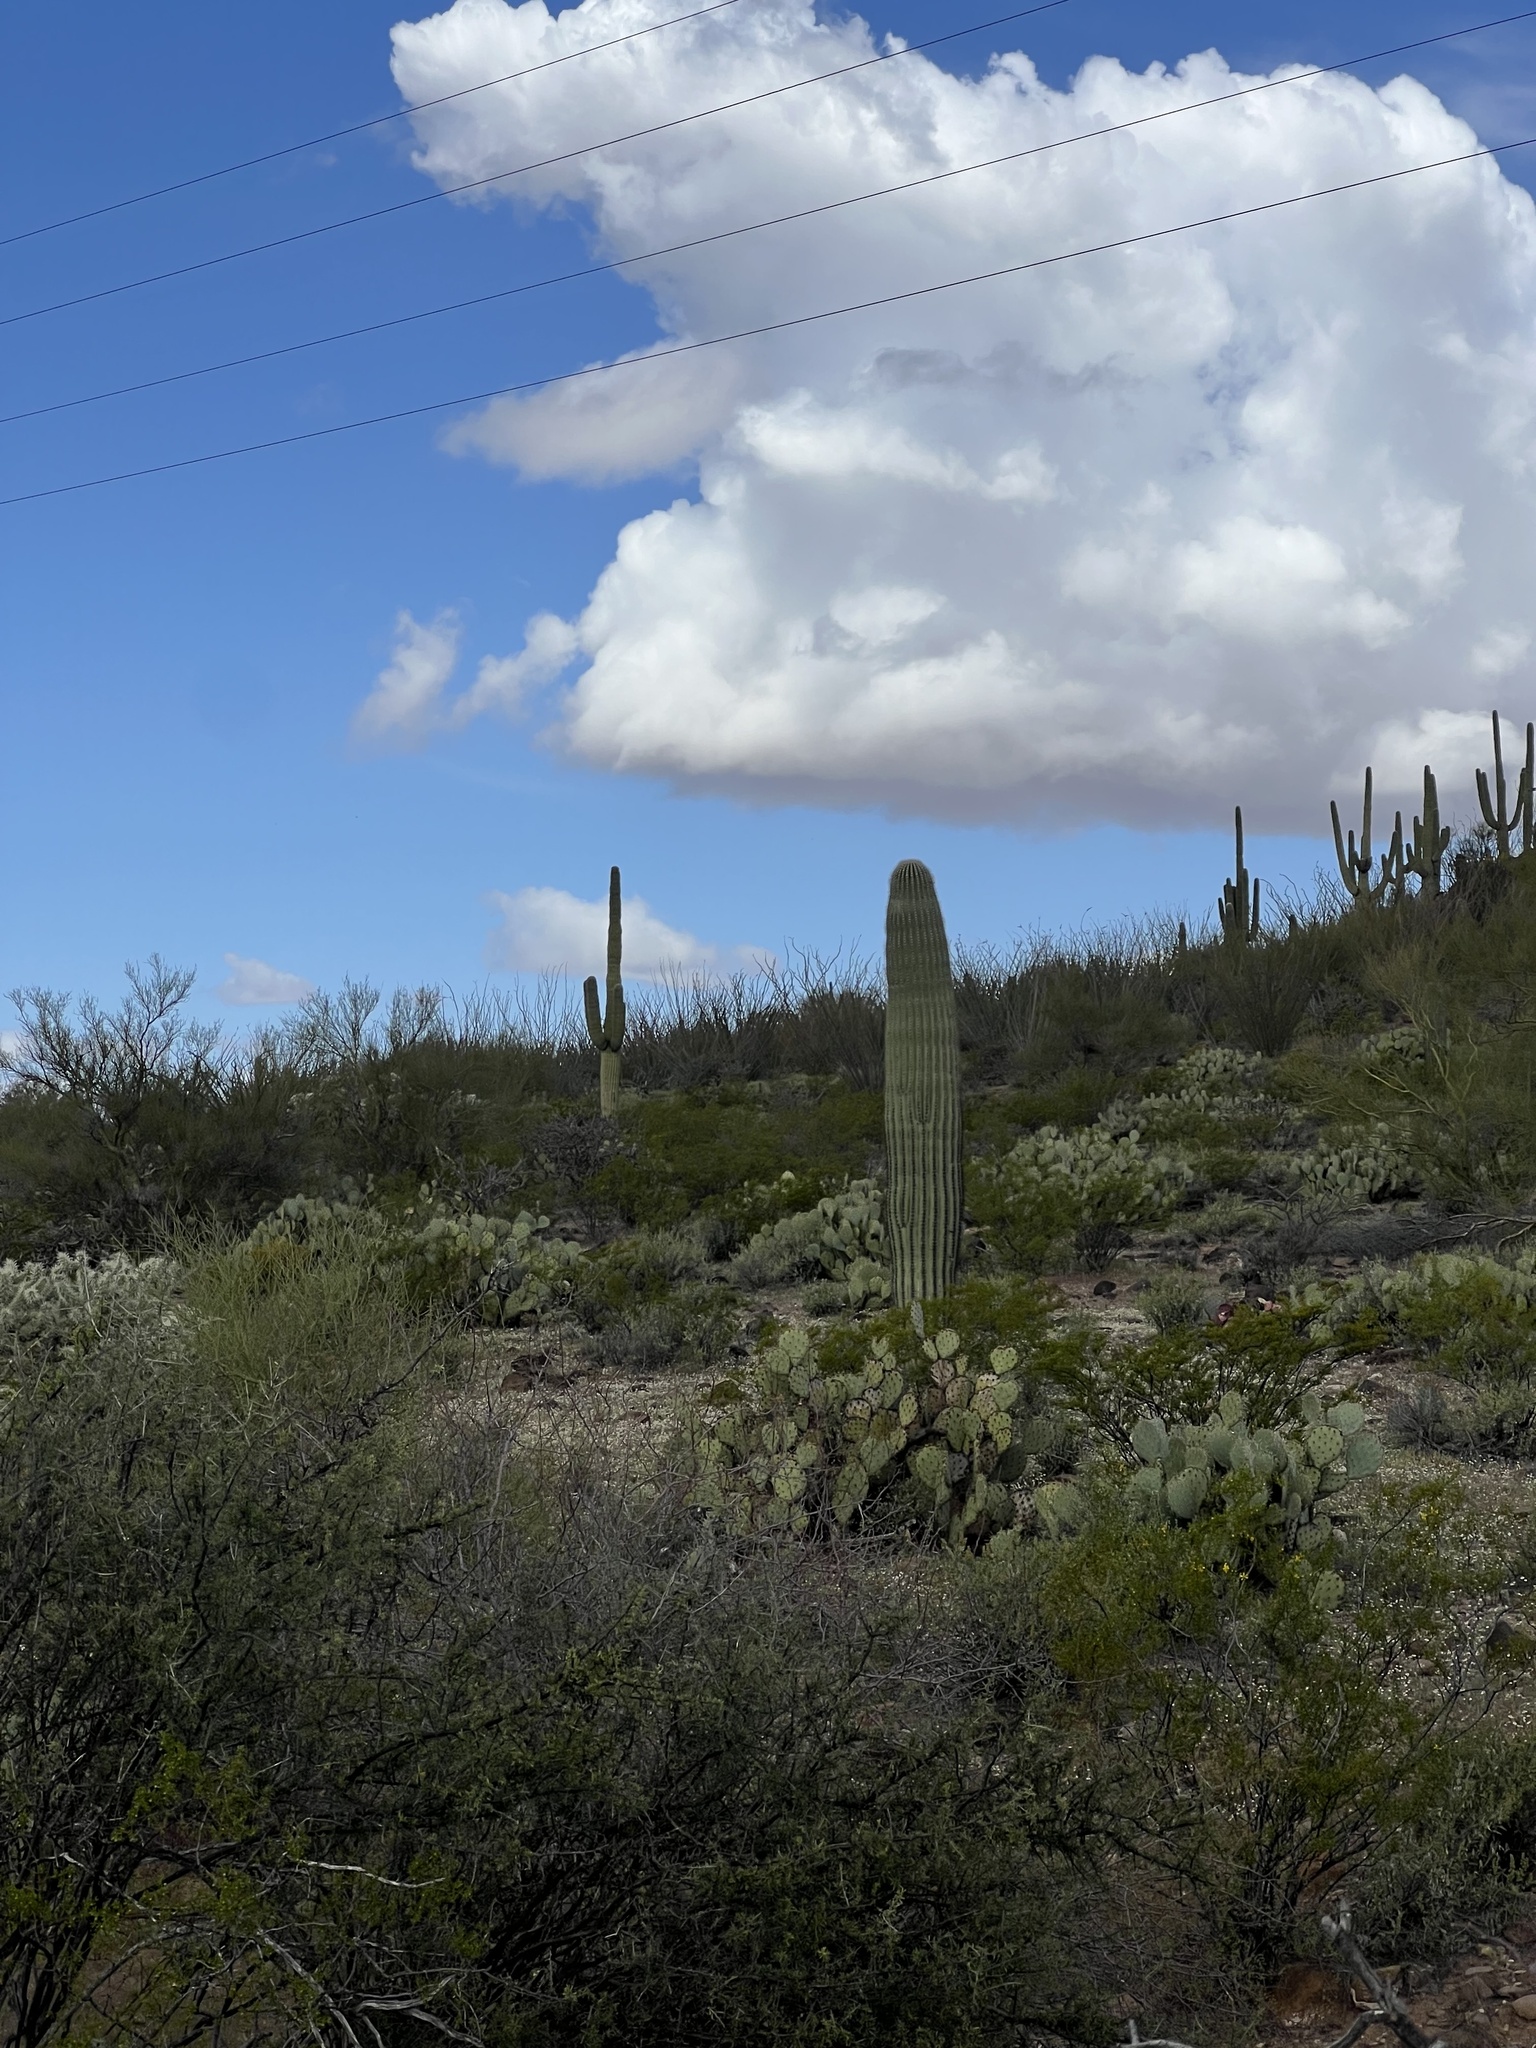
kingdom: Plantae
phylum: Tracheophyta
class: Magnoliopsida
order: Caryophyllales
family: Cactaceae
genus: Carnegiea
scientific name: Carnegiea gigantea
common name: Saguaro
